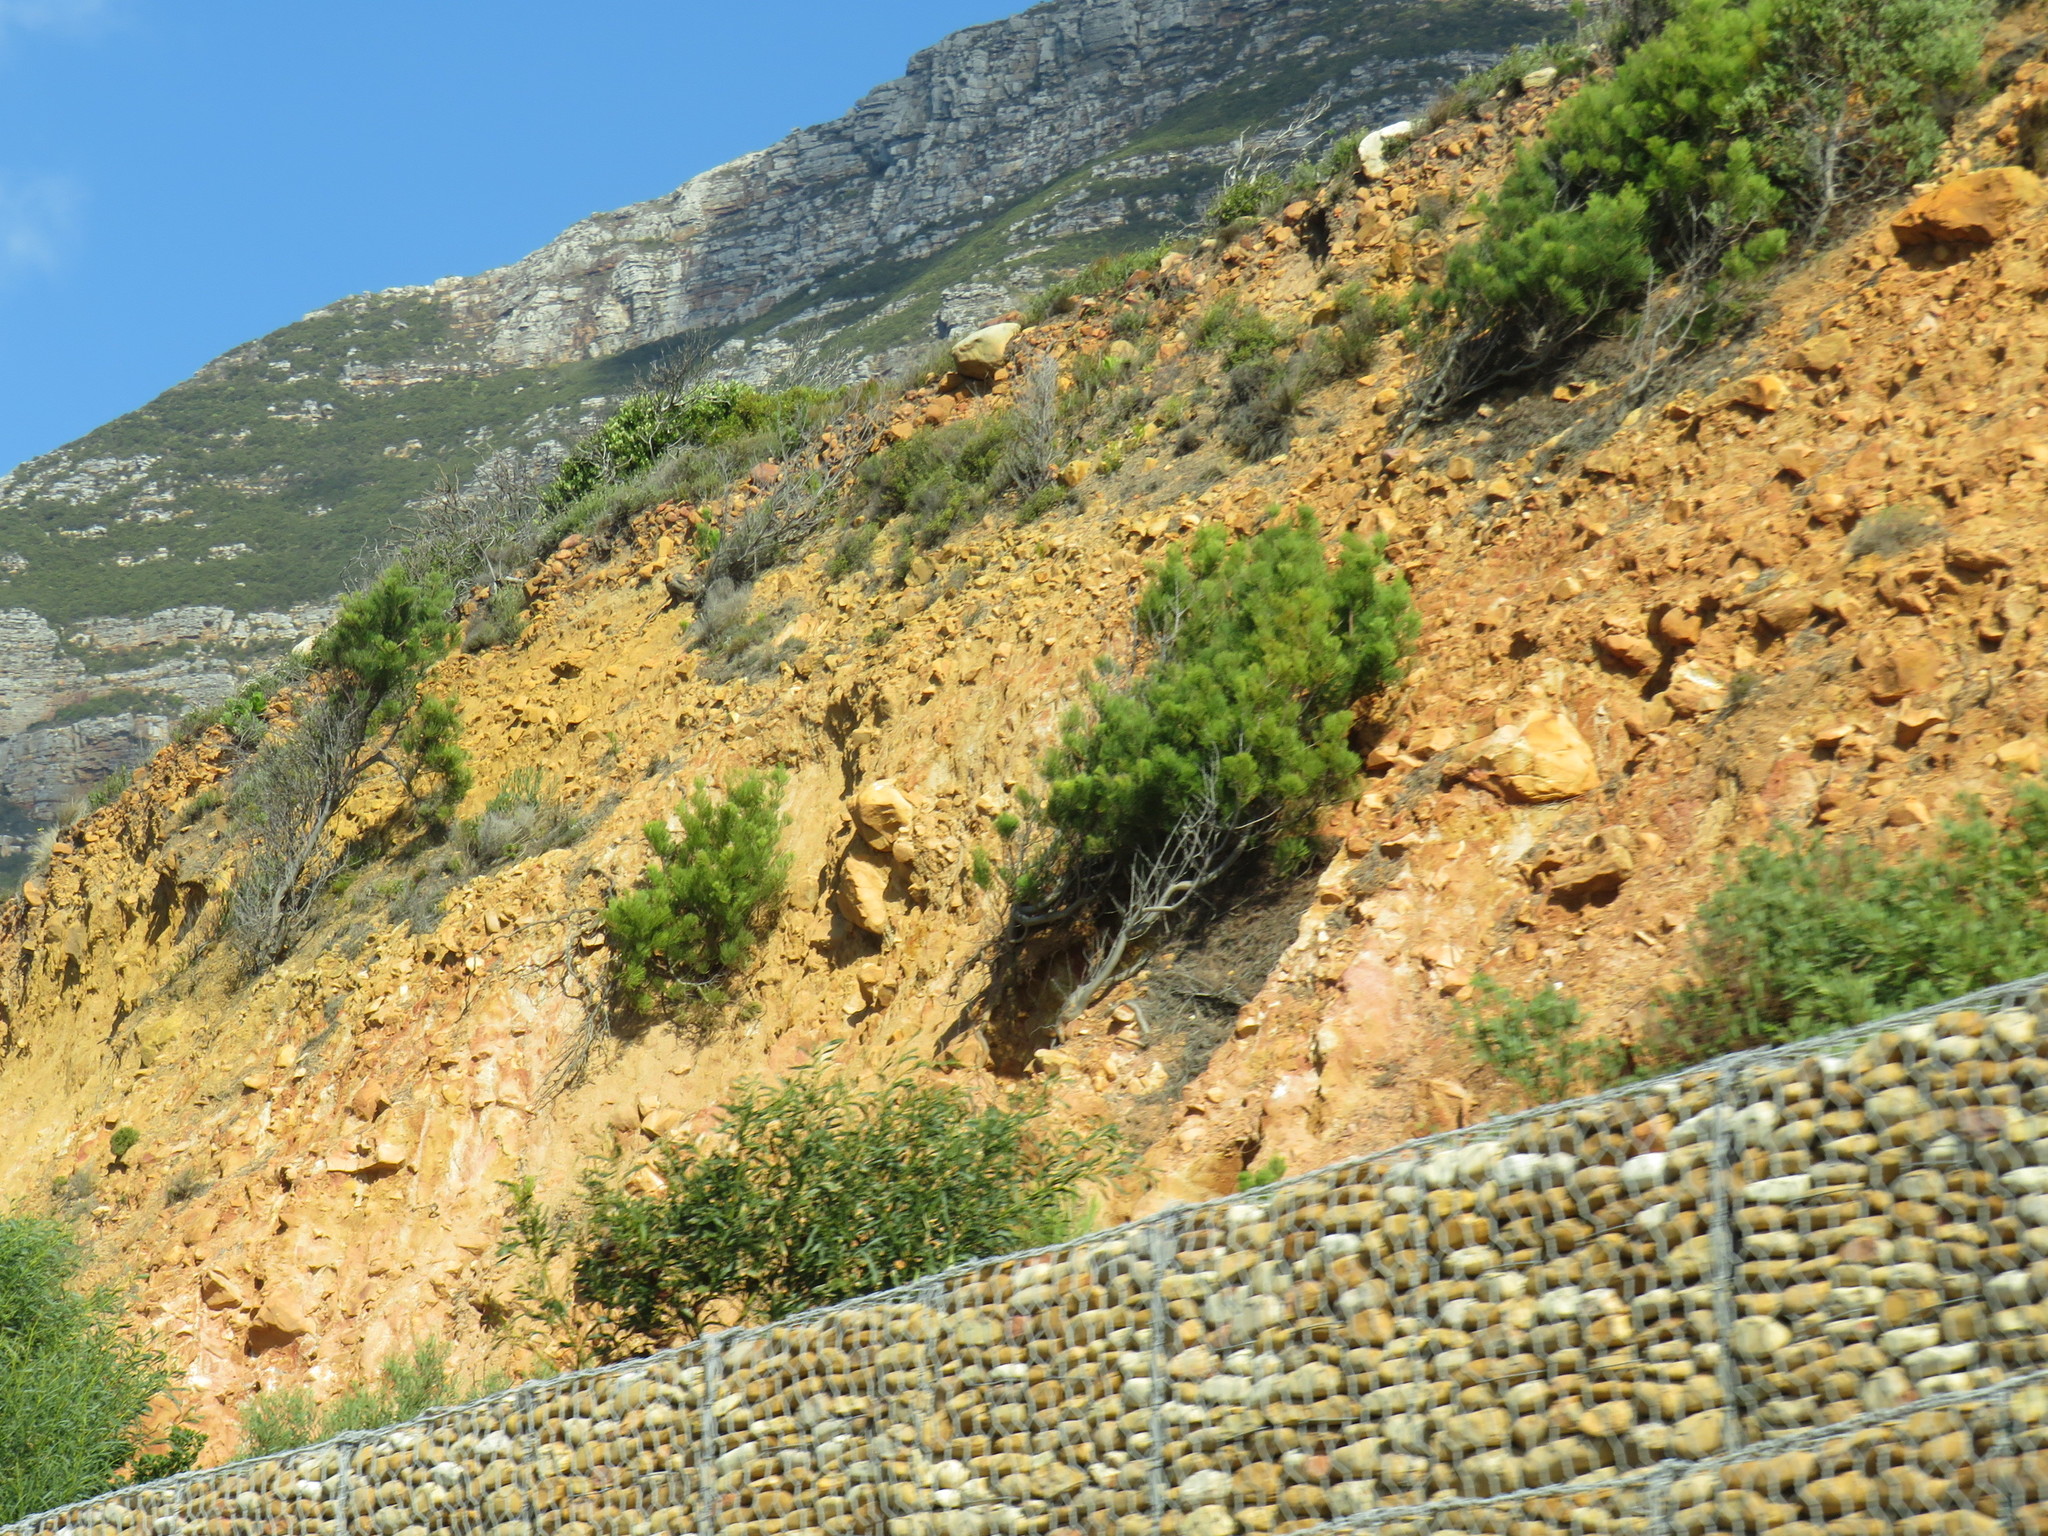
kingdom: Plantae
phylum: Tracheophyta
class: Magnoliopsida
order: Proteales
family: Proteaceae
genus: Hakea
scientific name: Hakea drupacea
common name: Sweet hakea
